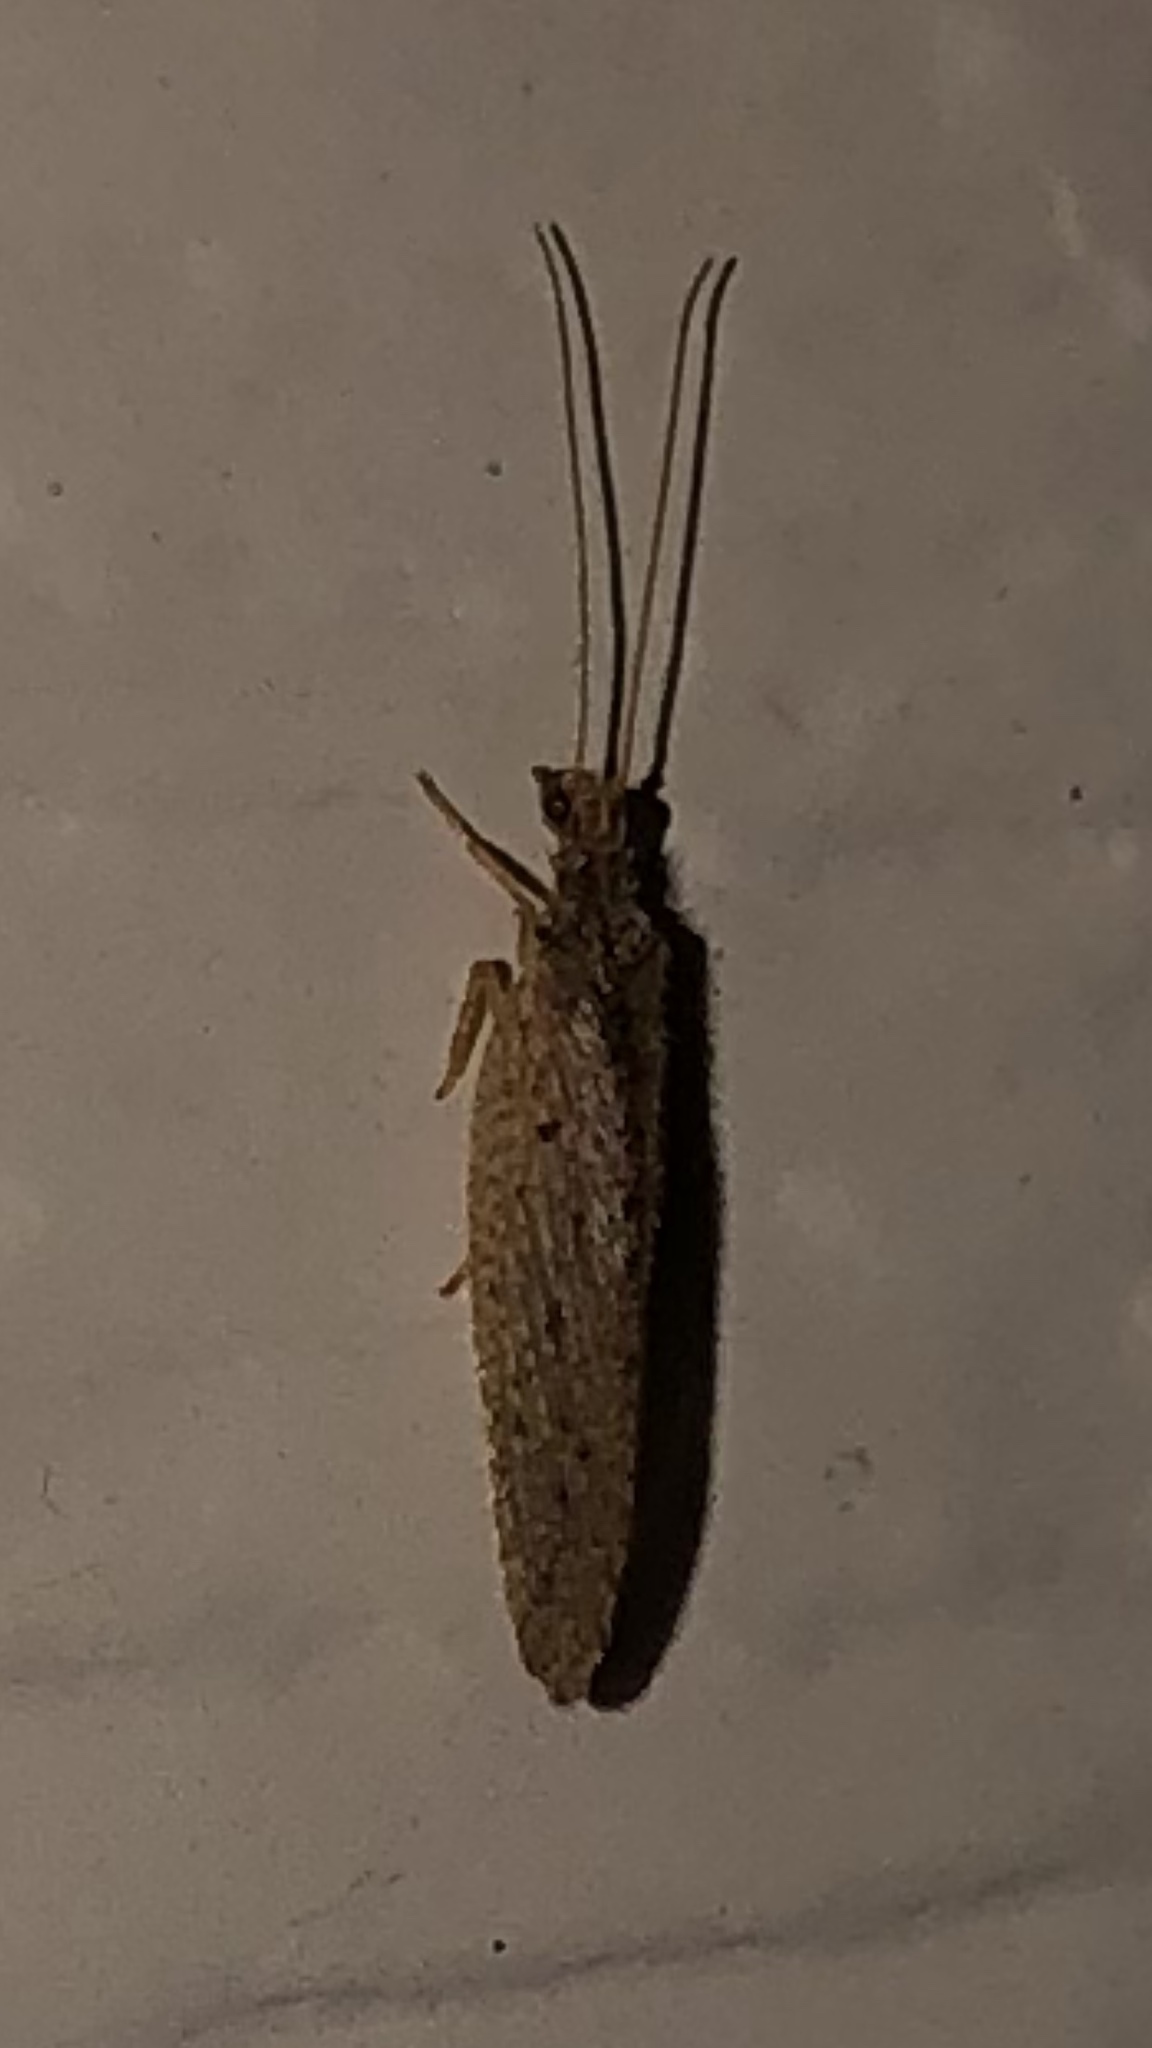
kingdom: Animalia
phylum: Arthropoda
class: Insecta
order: Neuroptera
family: Hemerobiidae
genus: Micromus
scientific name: Micromus subanticus
